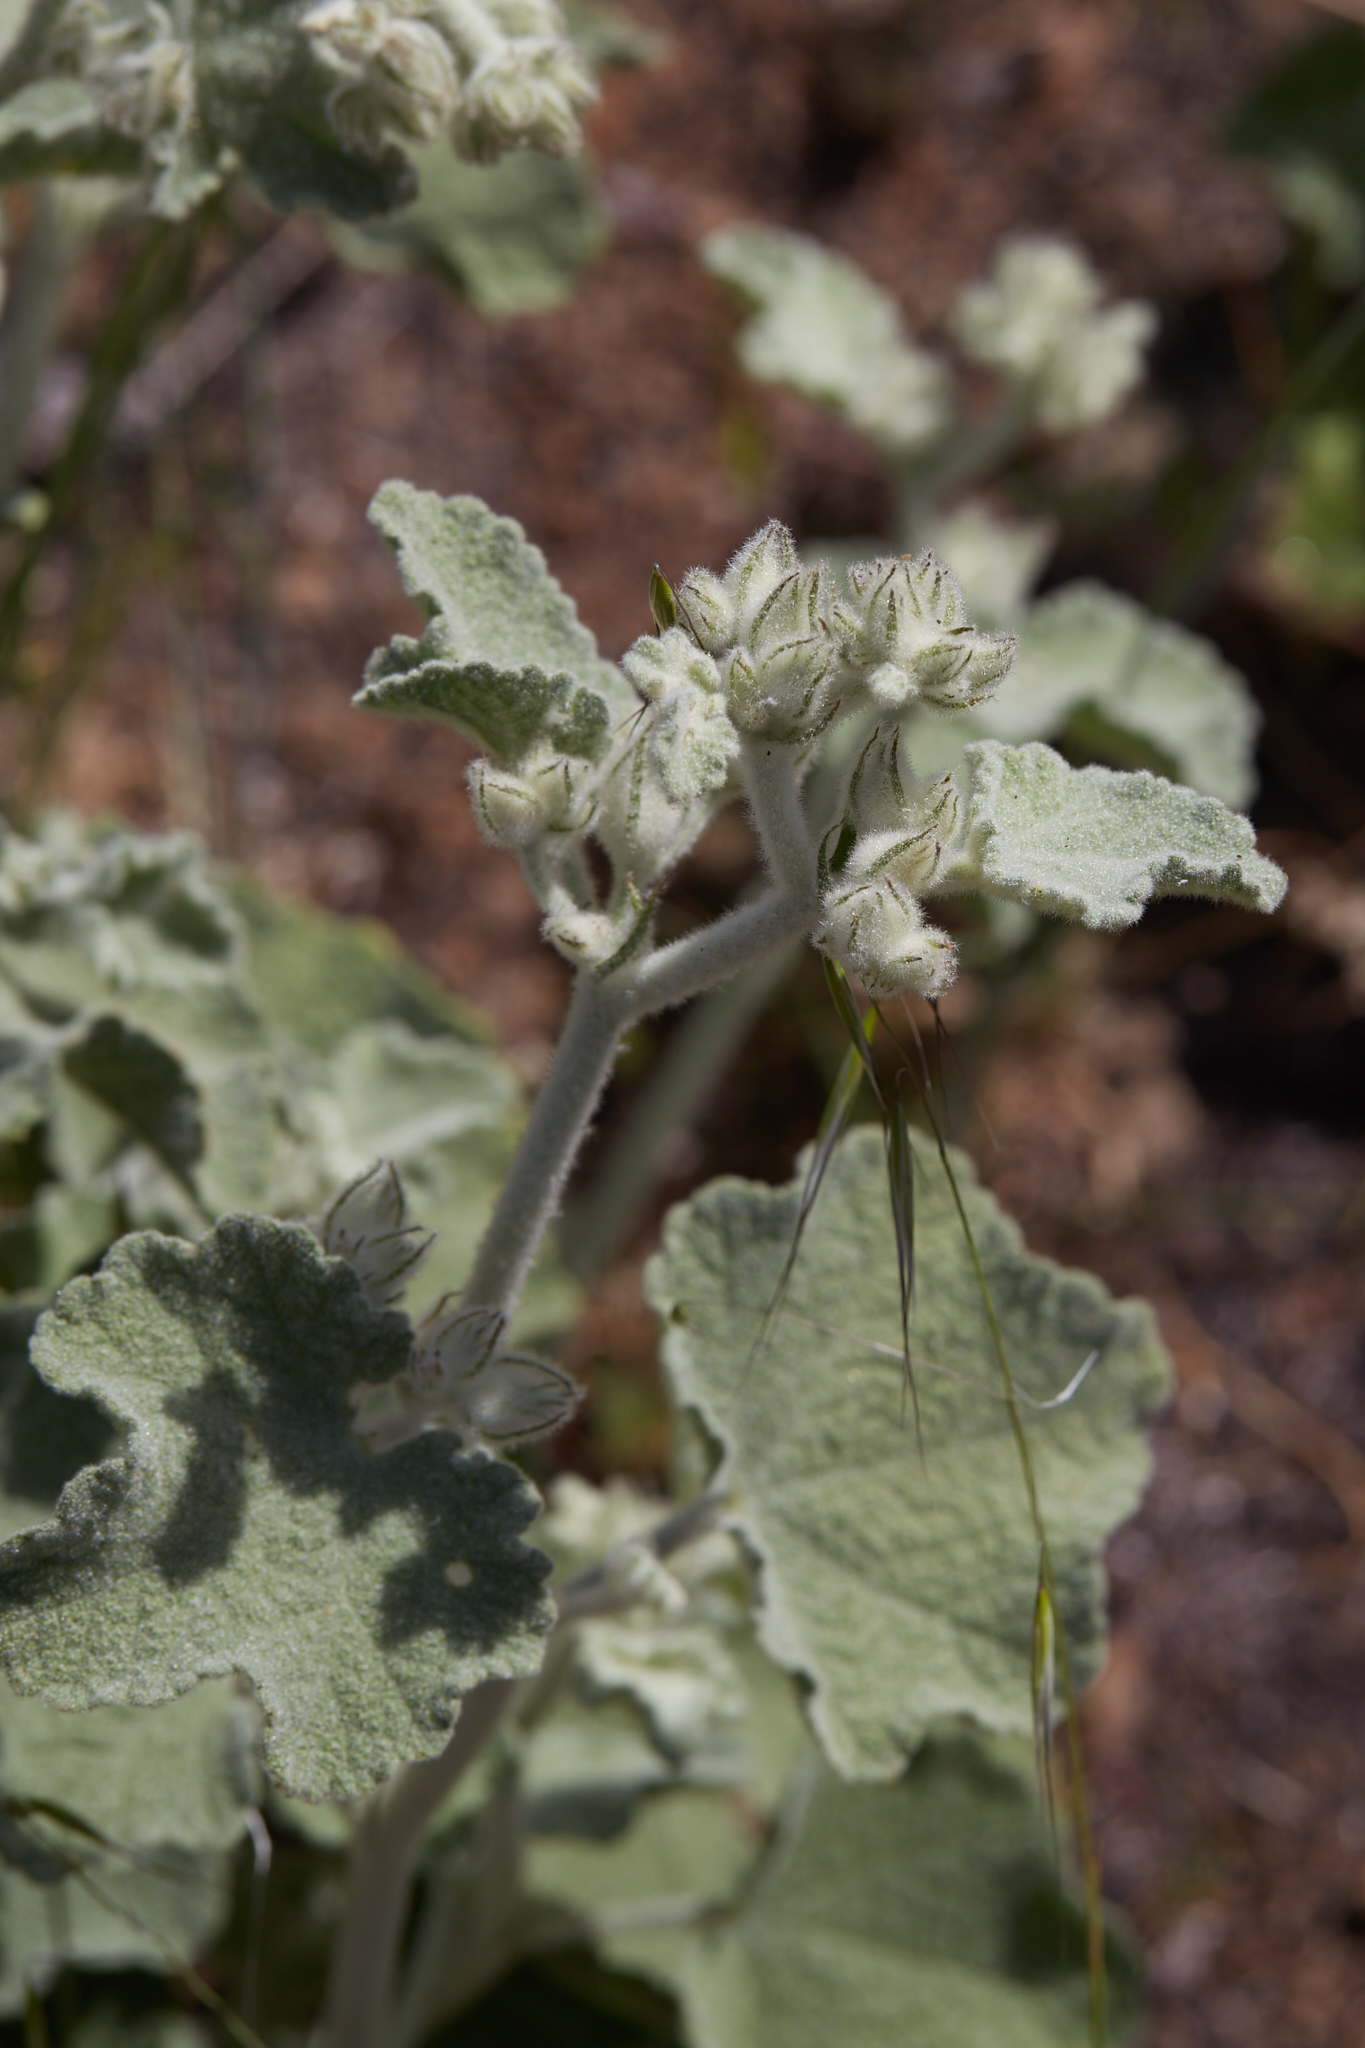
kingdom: Plantae
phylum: Tracheophyta
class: Magnoliopsida
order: Malvales
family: Malvaceae
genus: Malacothamnus
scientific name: Malacothamnus fremontii
